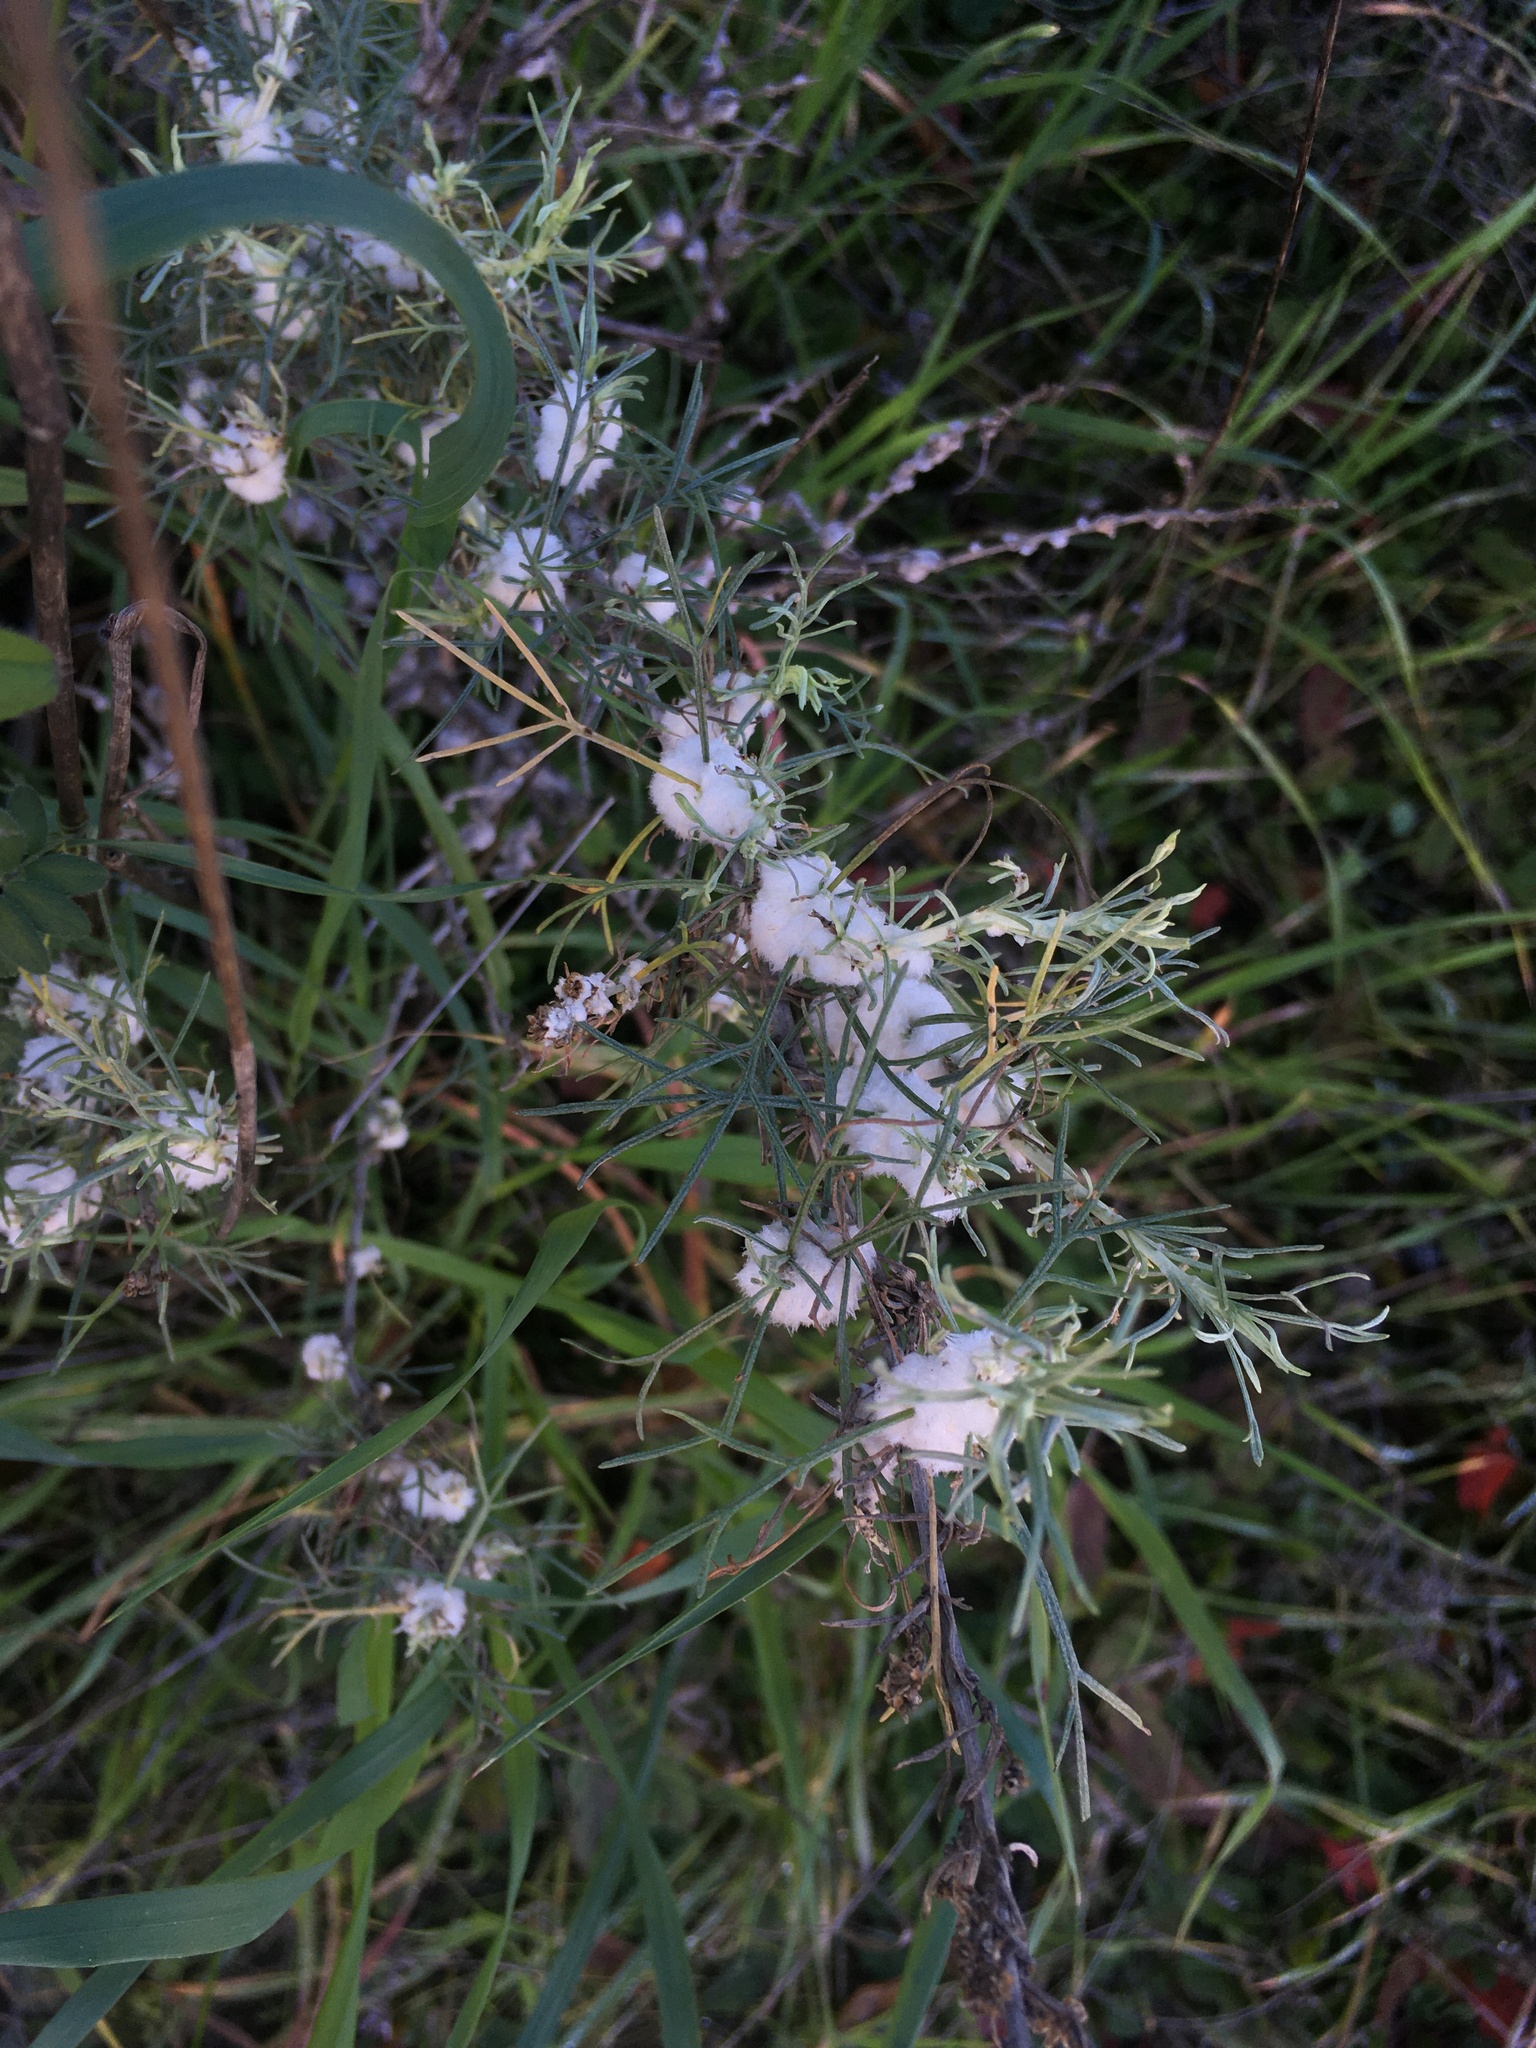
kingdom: Animalia
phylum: Arthropoda
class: Insecta
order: Diptera
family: Cecidomyiidae
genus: Rhopalomyia
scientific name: Rhopalomyia floccosa
